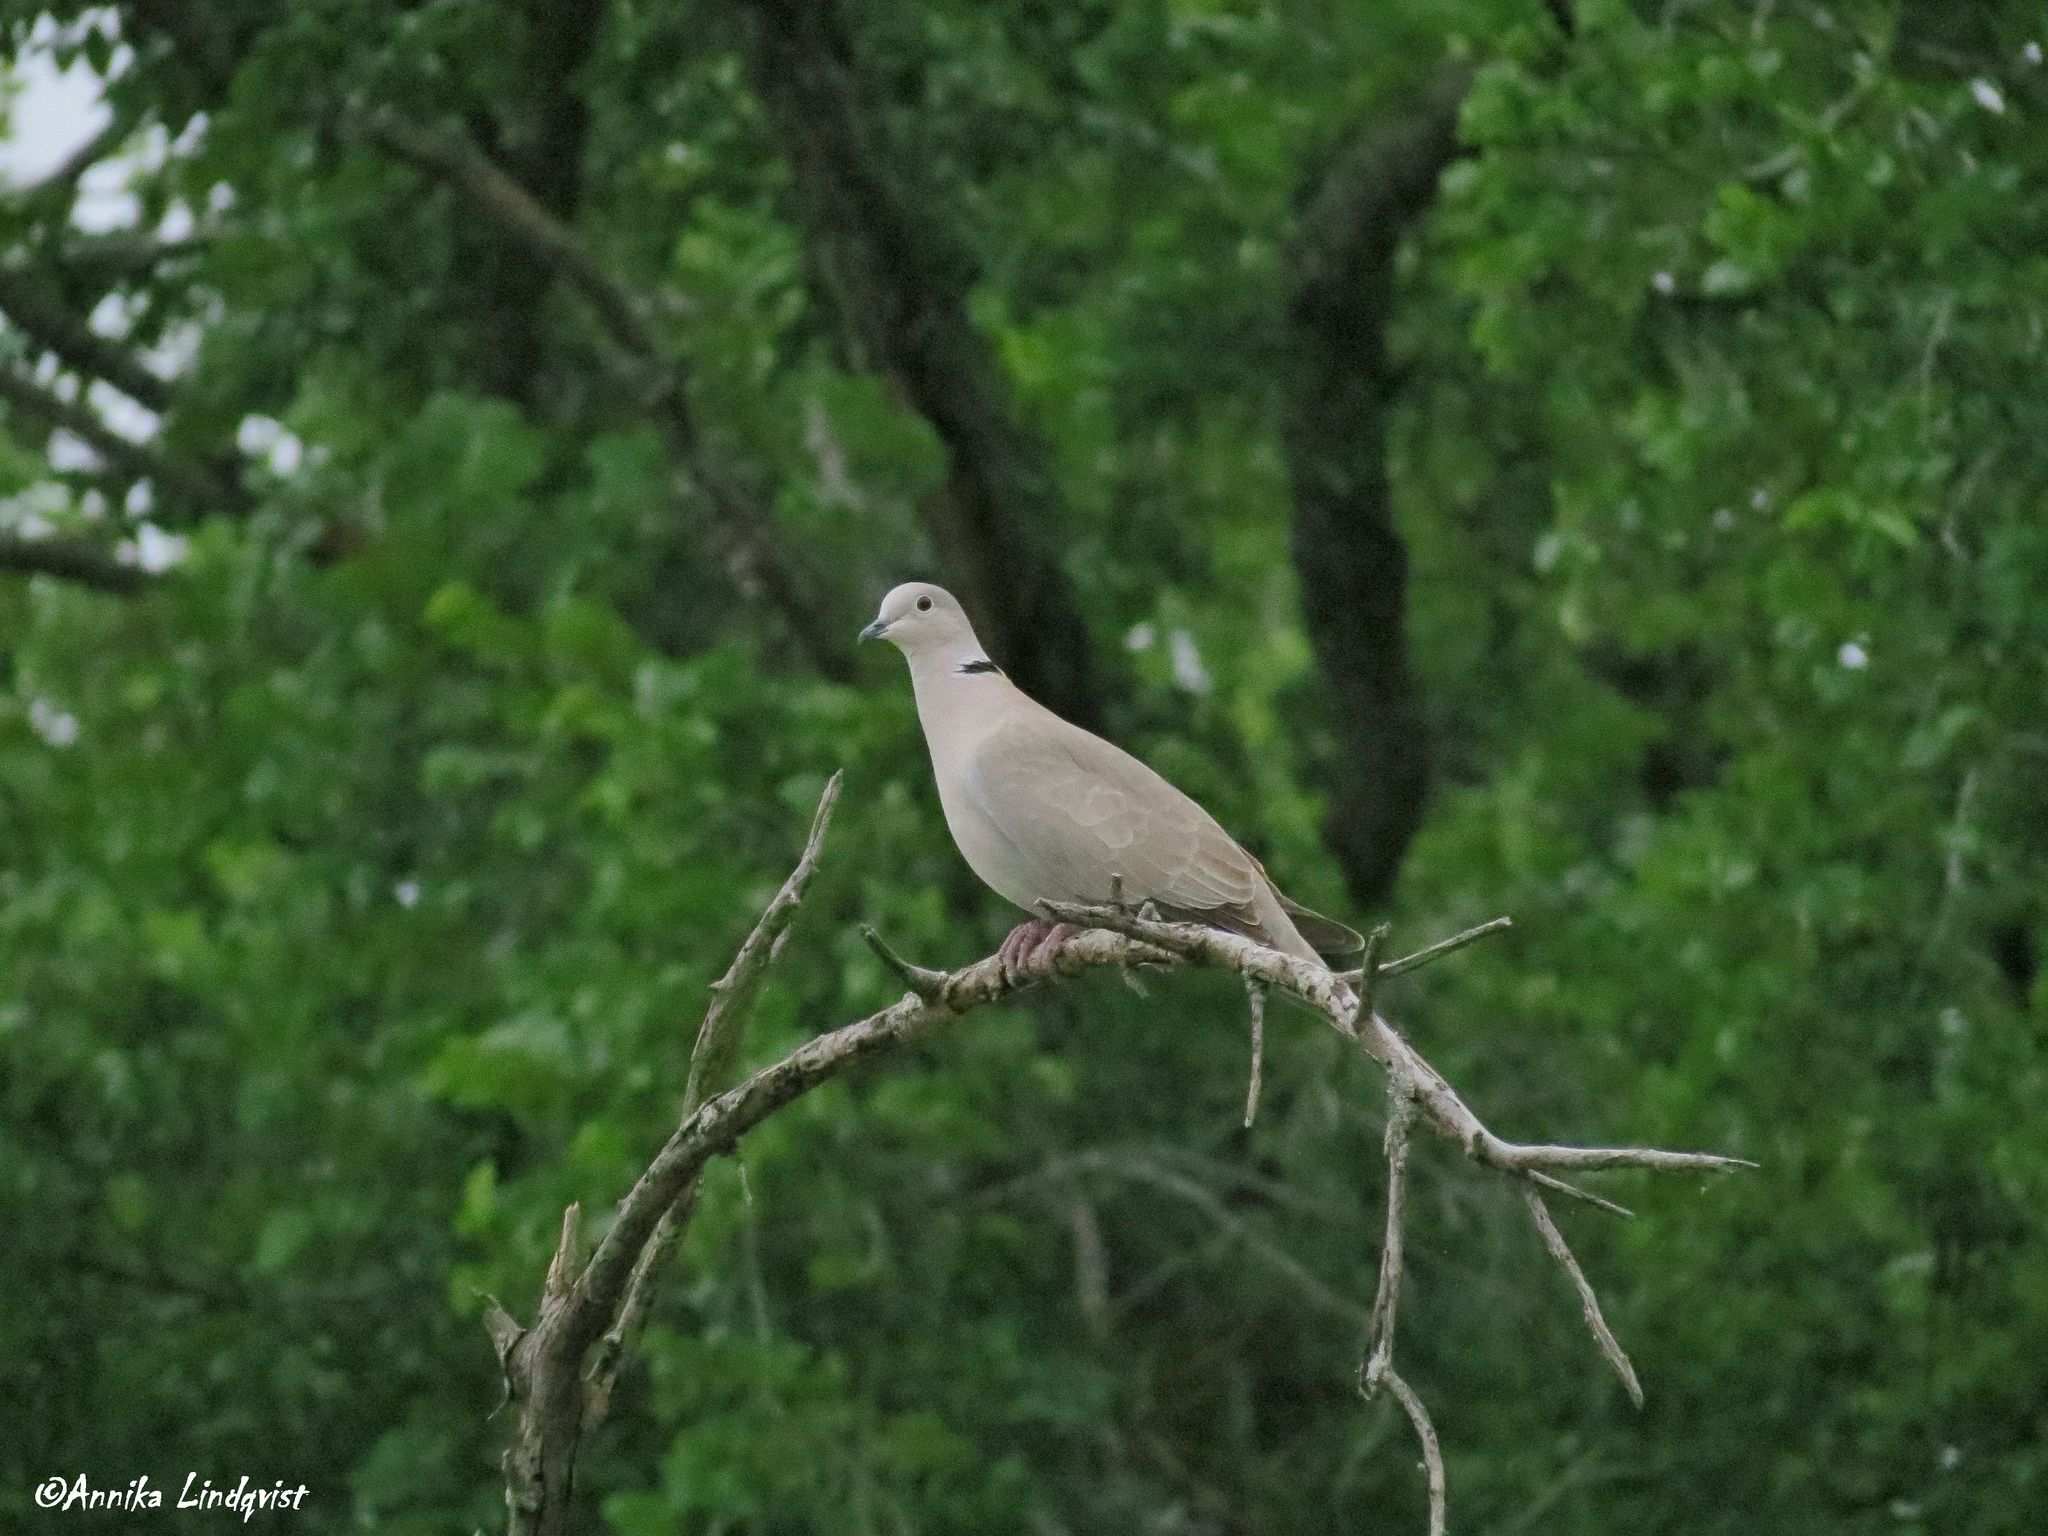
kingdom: Animalia
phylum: Chordata
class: Aves
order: Columbiformes
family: Columbidae
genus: Streptopelia
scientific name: Streptopelia decaocto
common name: Eurasian collared dove
